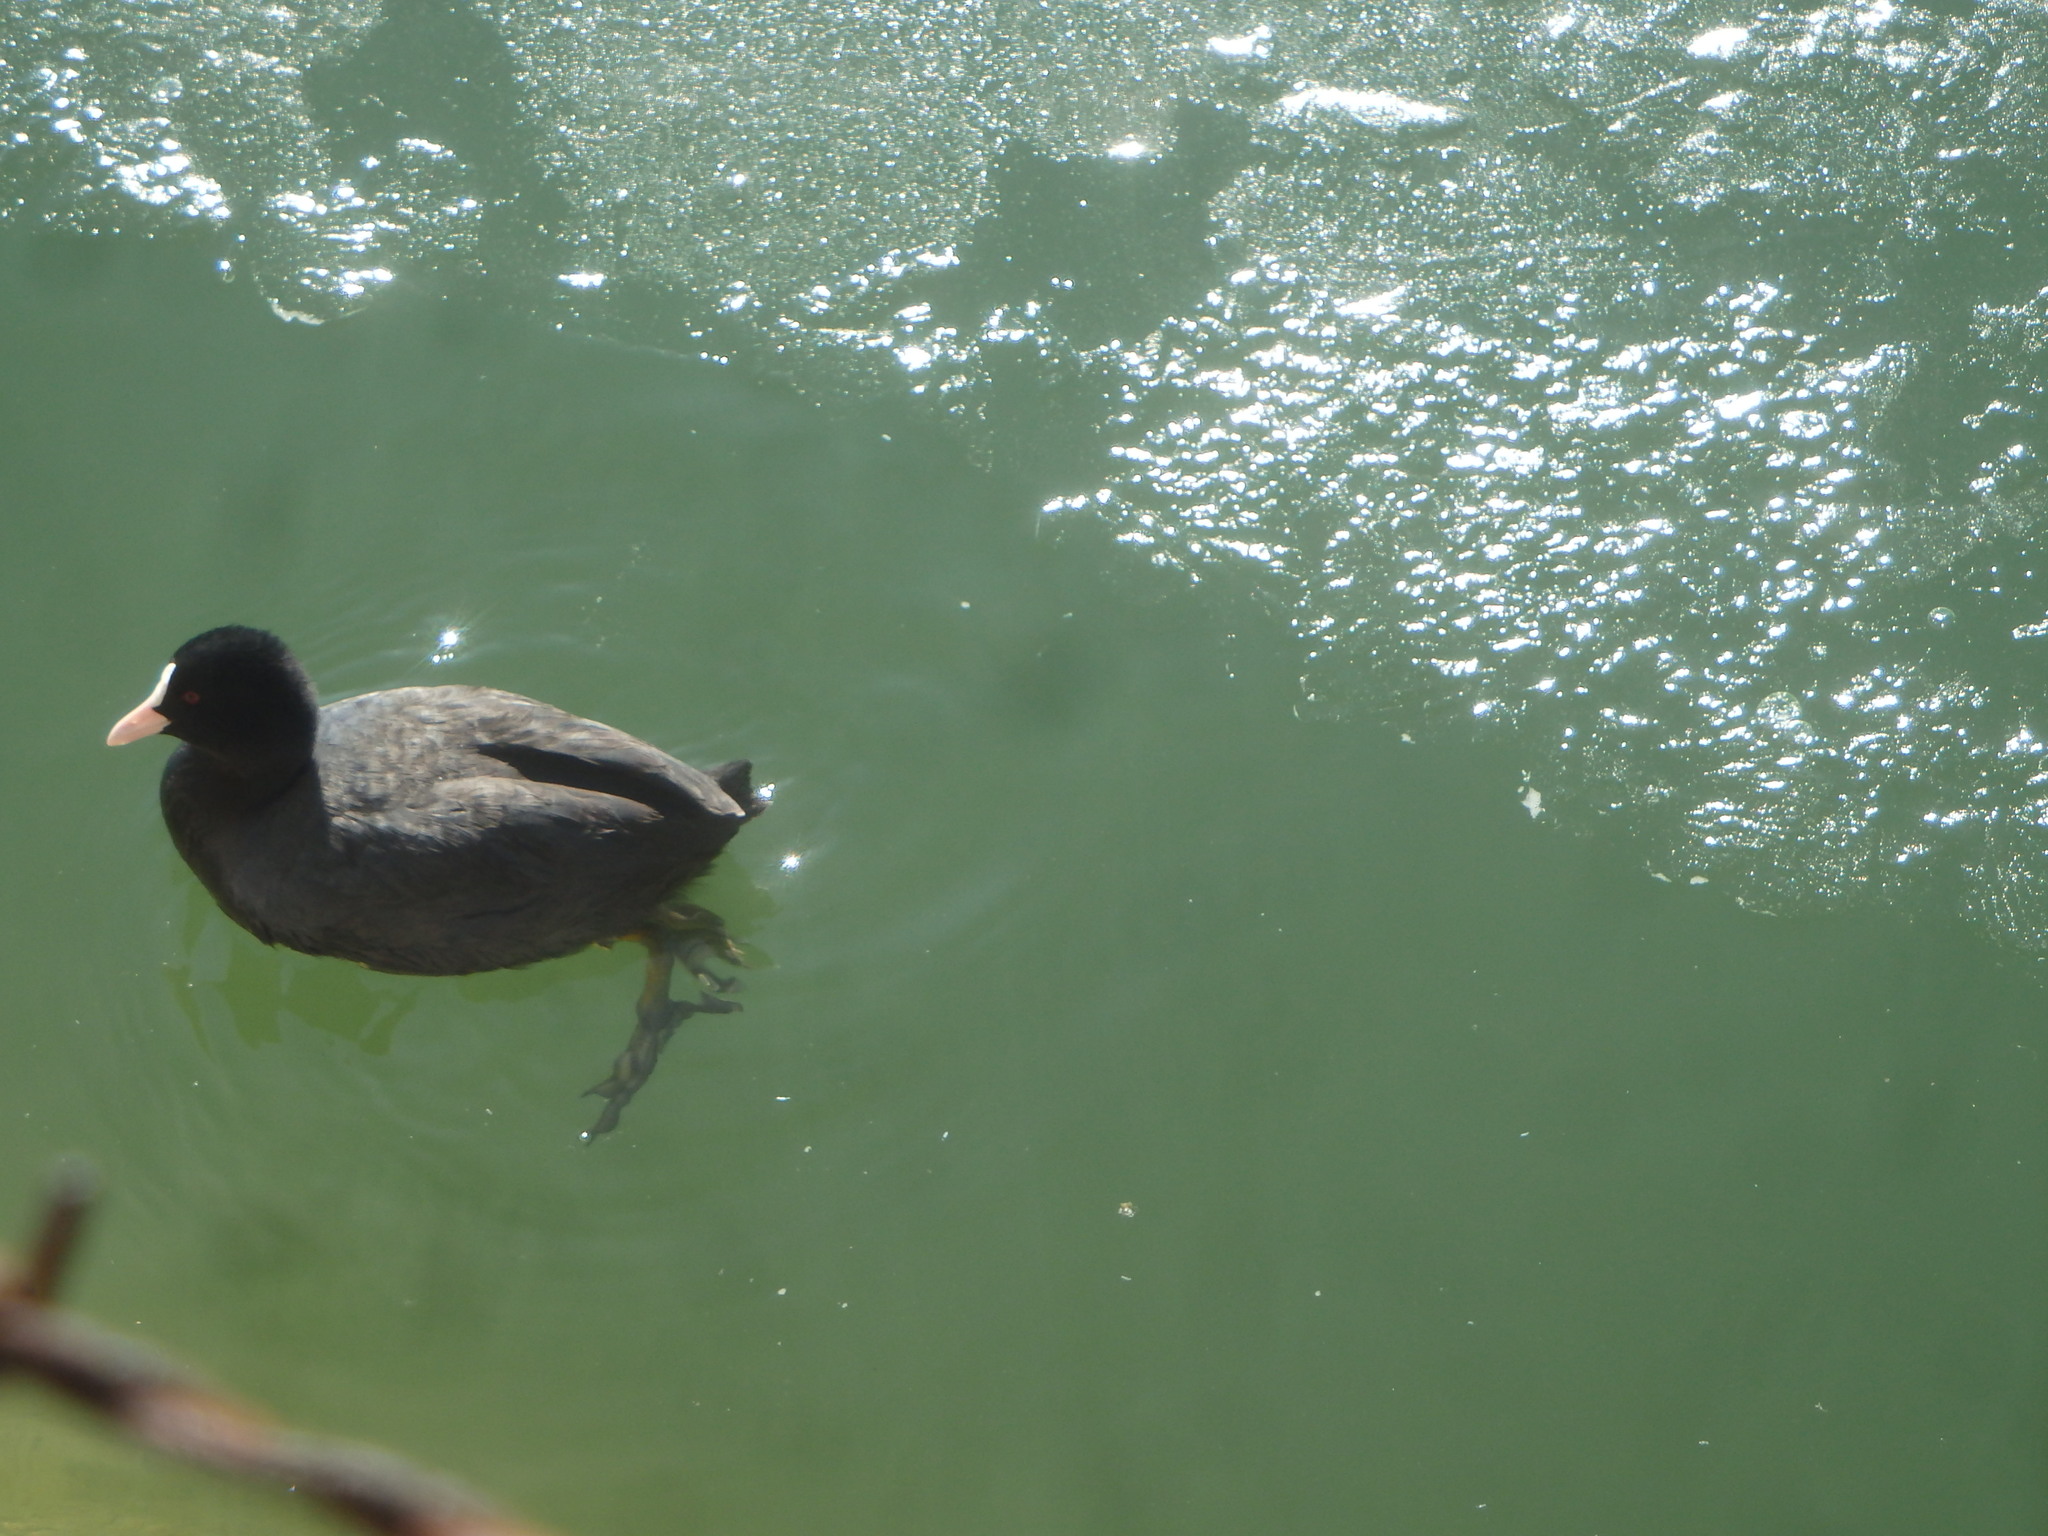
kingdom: Animalia
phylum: Chordata
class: Aves
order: Gruiformes
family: Rallidae
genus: Fulica
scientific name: Fulica atra
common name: Eurasian coot
